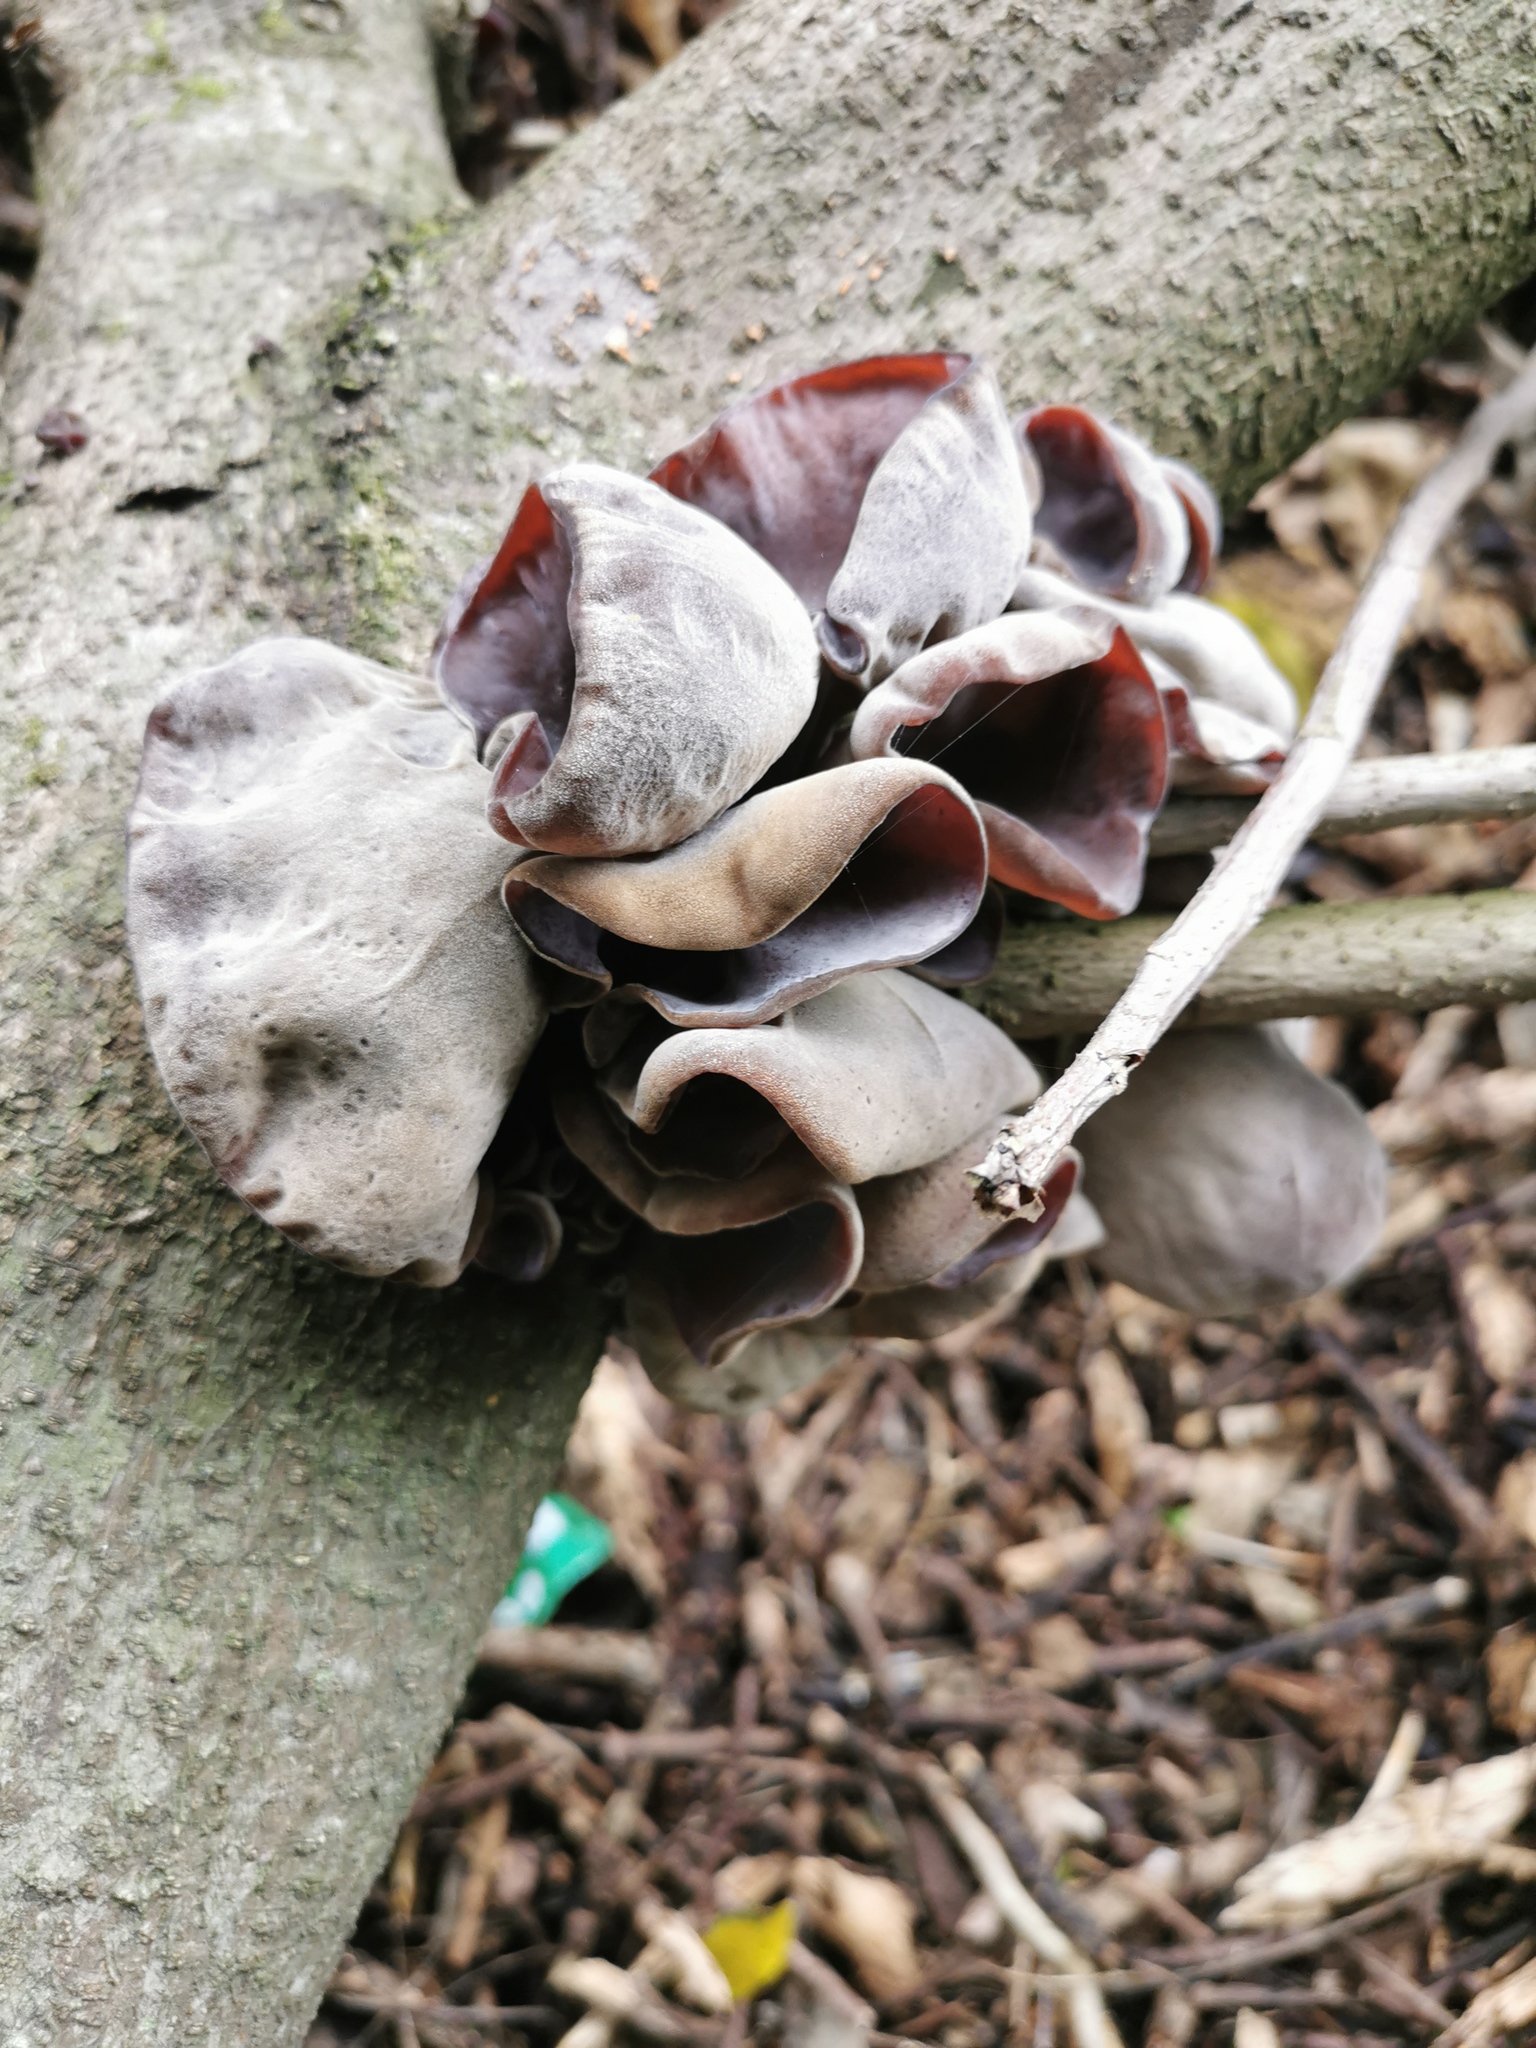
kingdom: Fungi
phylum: Basidiomycota
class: Agaricomycetes
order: Auriculariales
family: Auriculariaceae
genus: Auricularia
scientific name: Auricularia cornea
